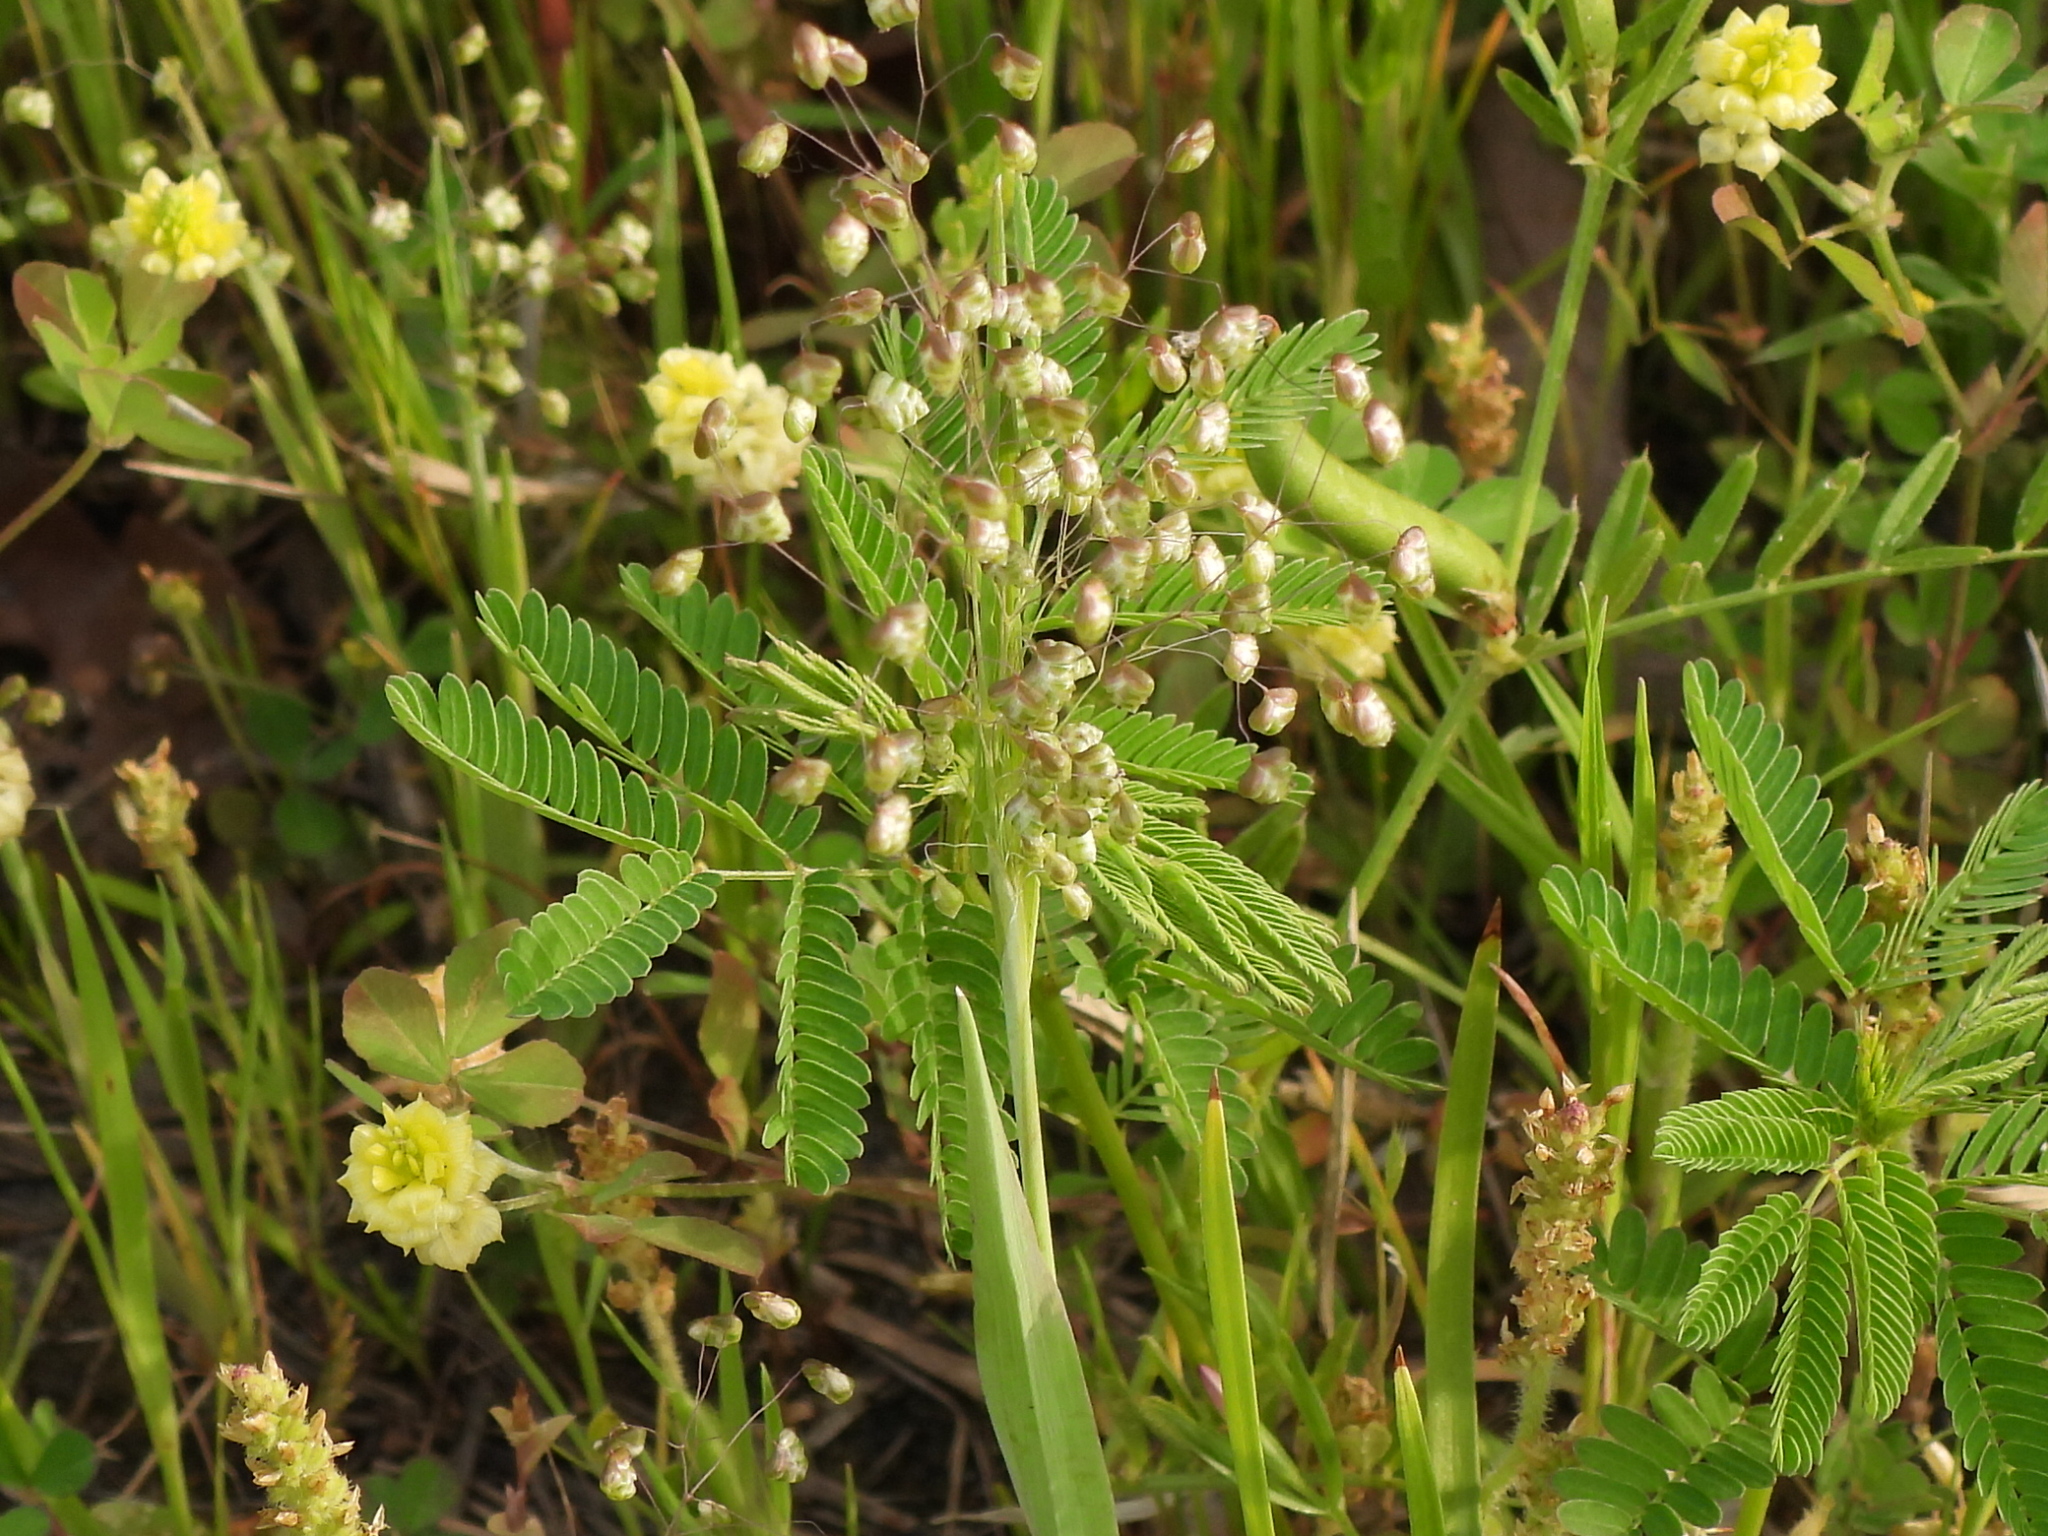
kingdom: Plantae
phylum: Tracheophyta
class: Liliopsida
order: Poales
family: Poaceae
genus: Briza
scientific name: Briza minor
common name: Lesser quaking-grass
